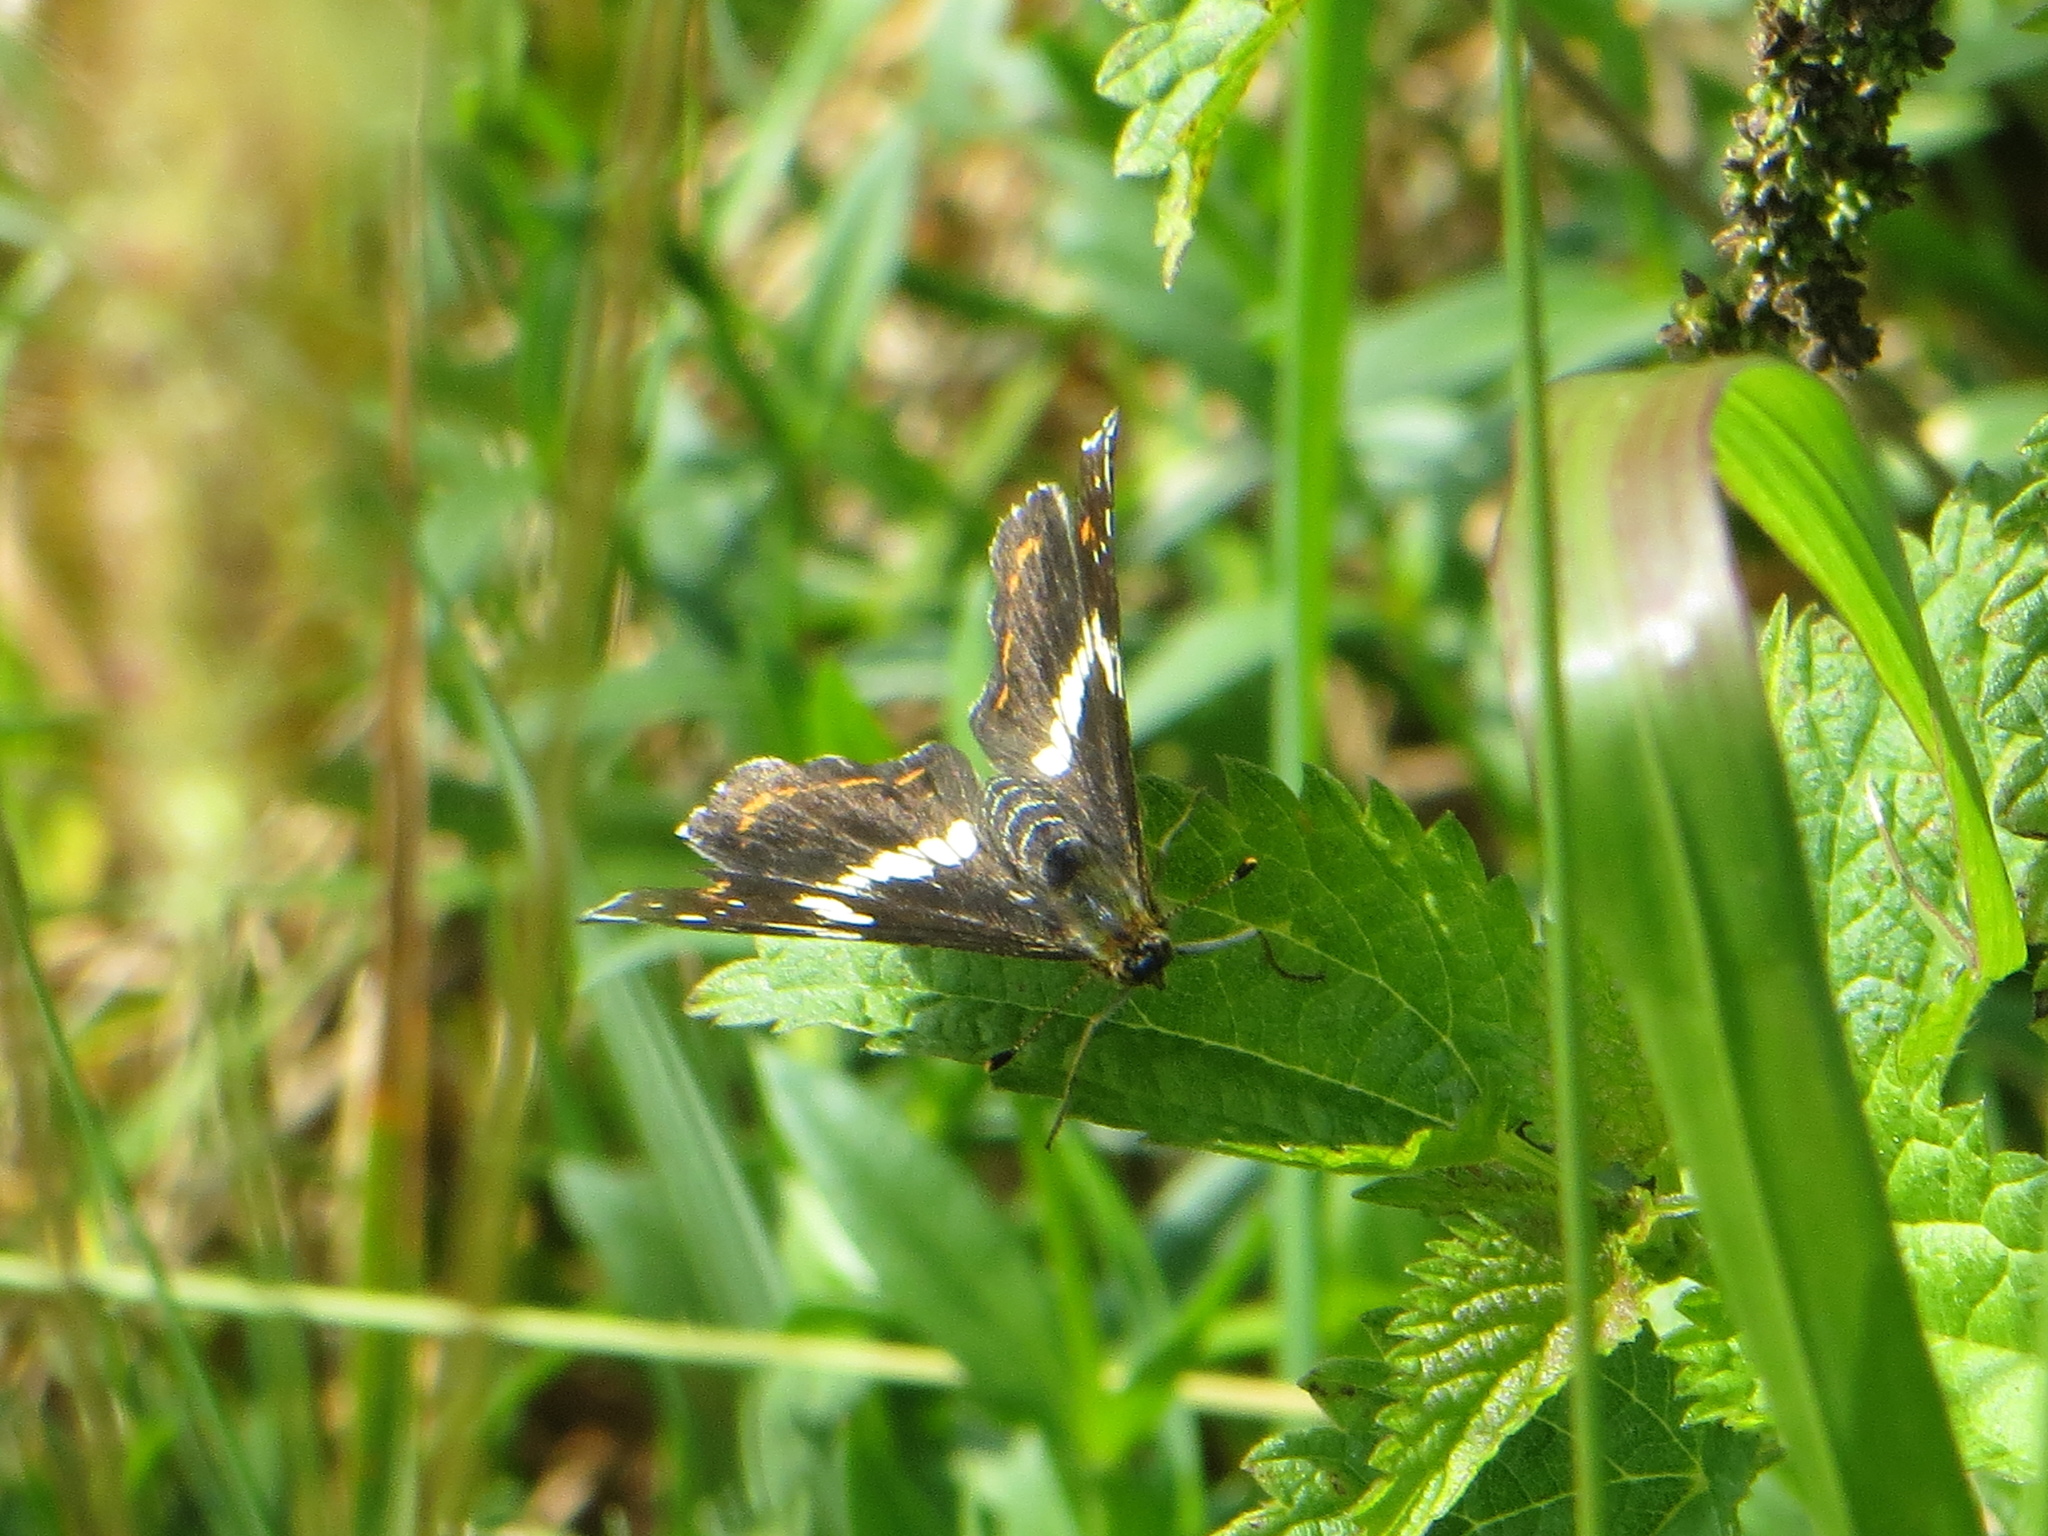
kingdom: Animalia
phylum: Arthropoda
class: Insecta
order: Lepidoptera
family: Nymphalidae
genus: Araschnia
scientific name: Araschnia levana
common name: Map butterfly
